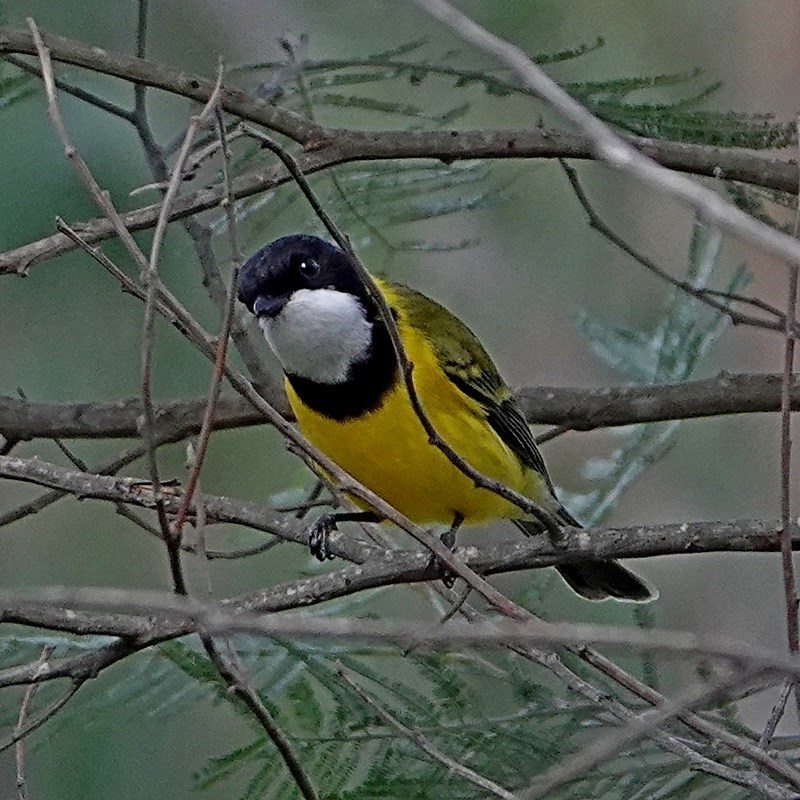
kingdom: Animalia
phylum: Chordata
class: Aves
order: Passeriformes
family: Pachycephalidae
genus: Pachycephala
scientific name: Pachycephala pectoralis
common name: Australian golden whistler
